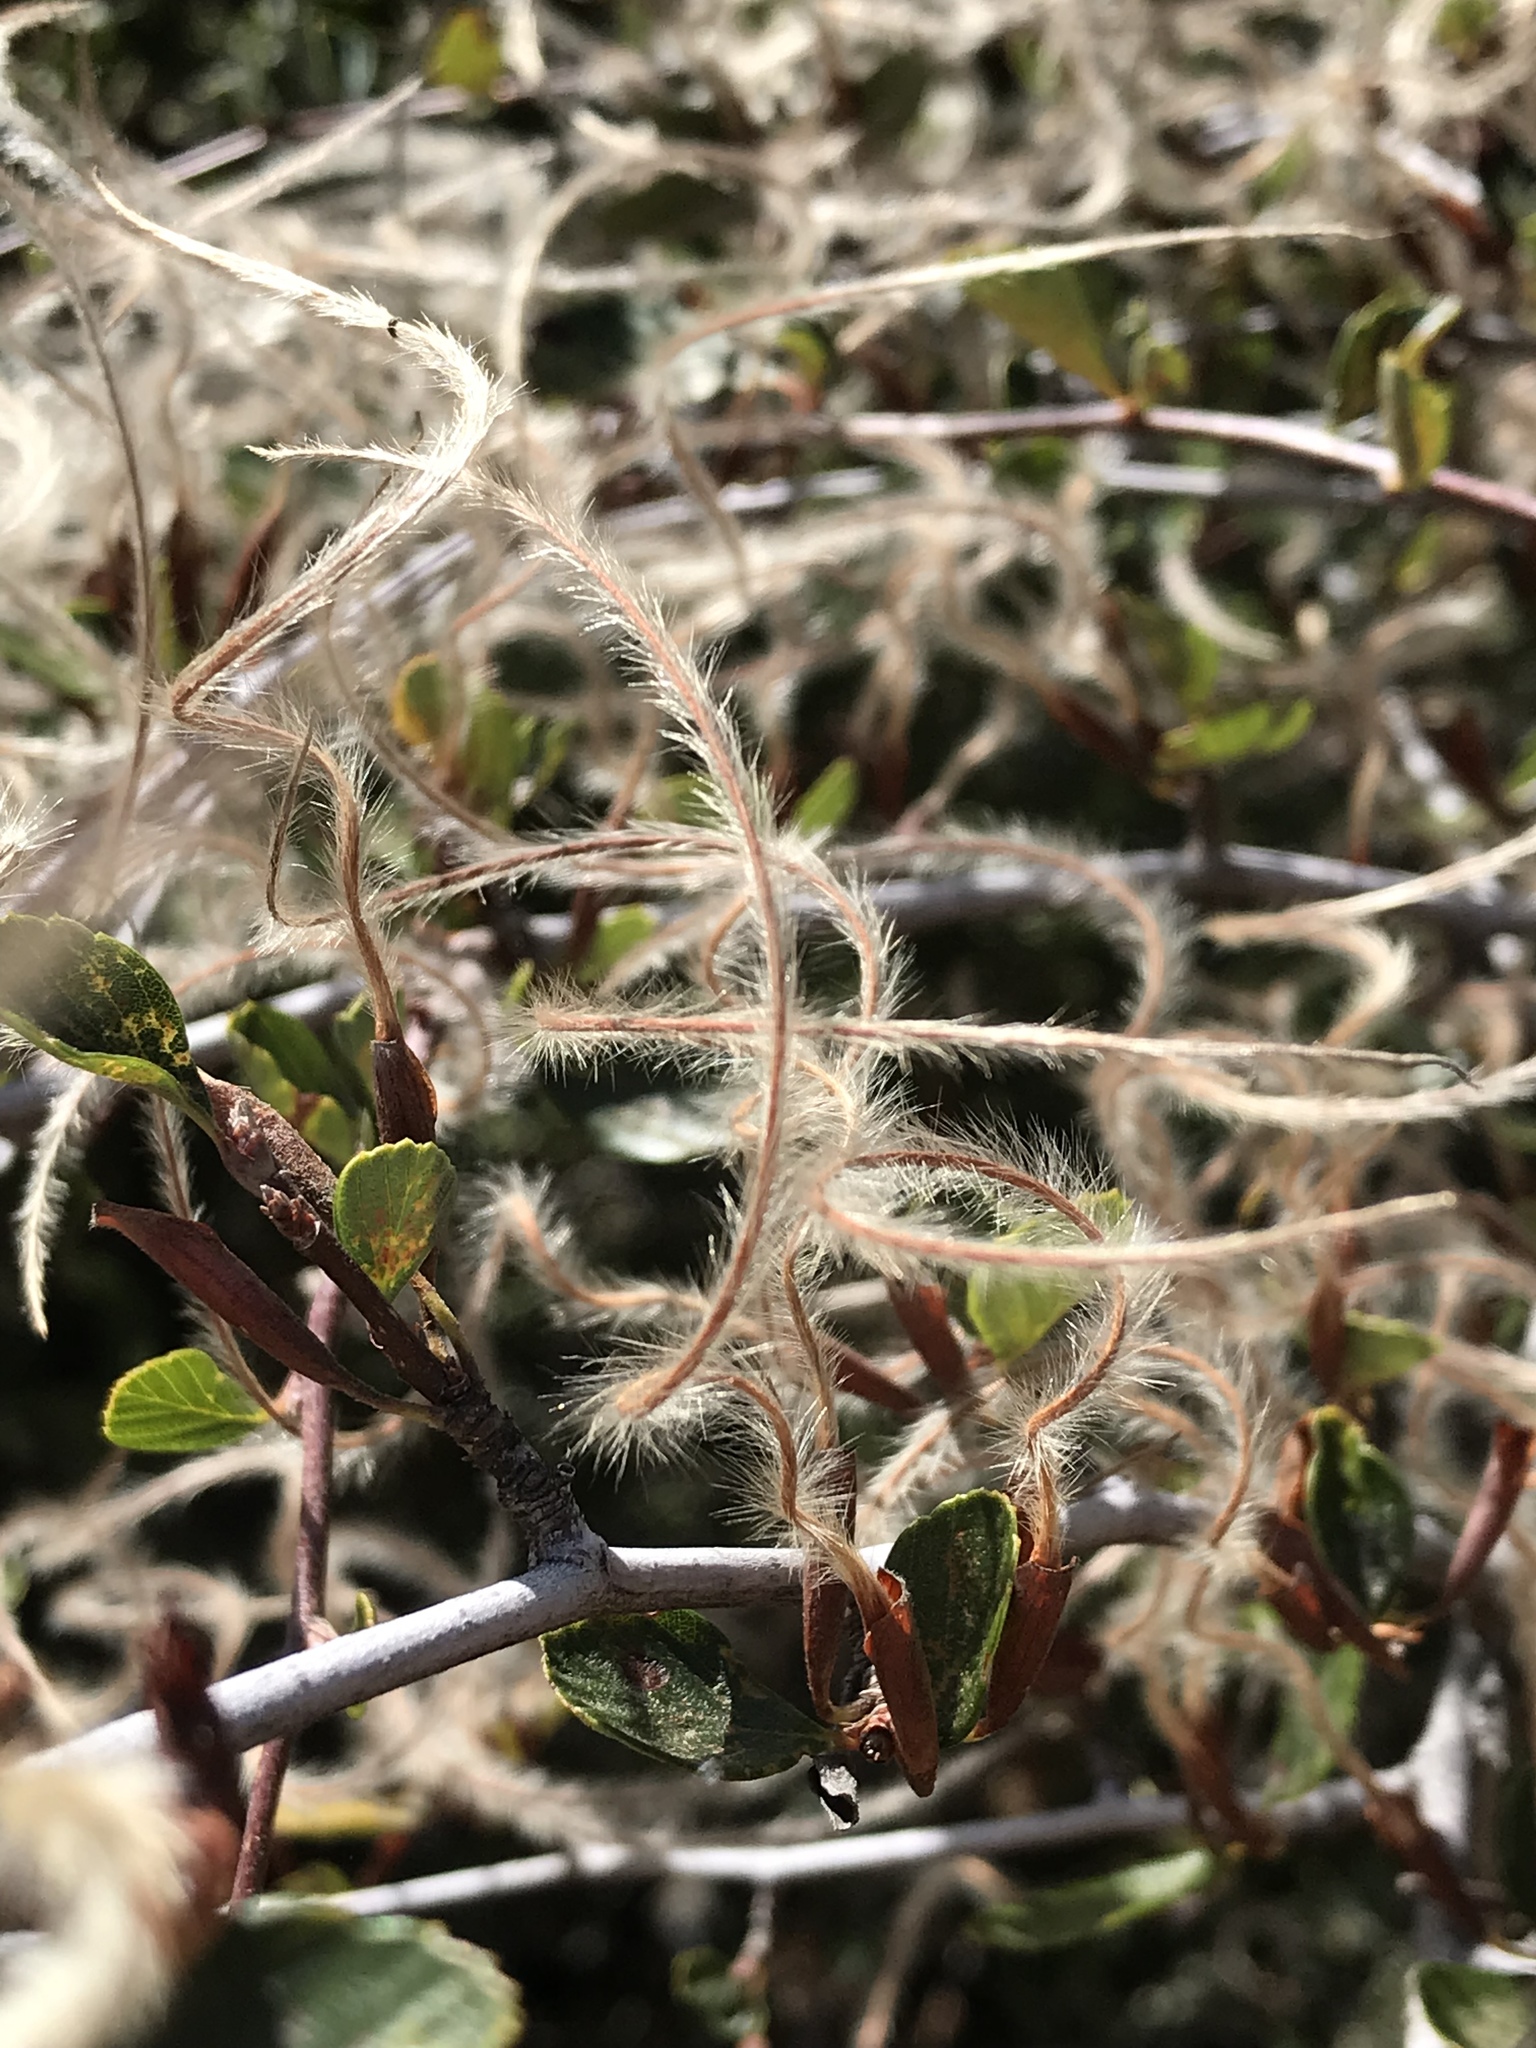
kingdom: Plantae
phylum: Tracheophyta
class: Magnoliopsida
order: Rosales
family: Rosaceae
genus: Cercocarpus
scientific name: Cercocarpus betuloides
